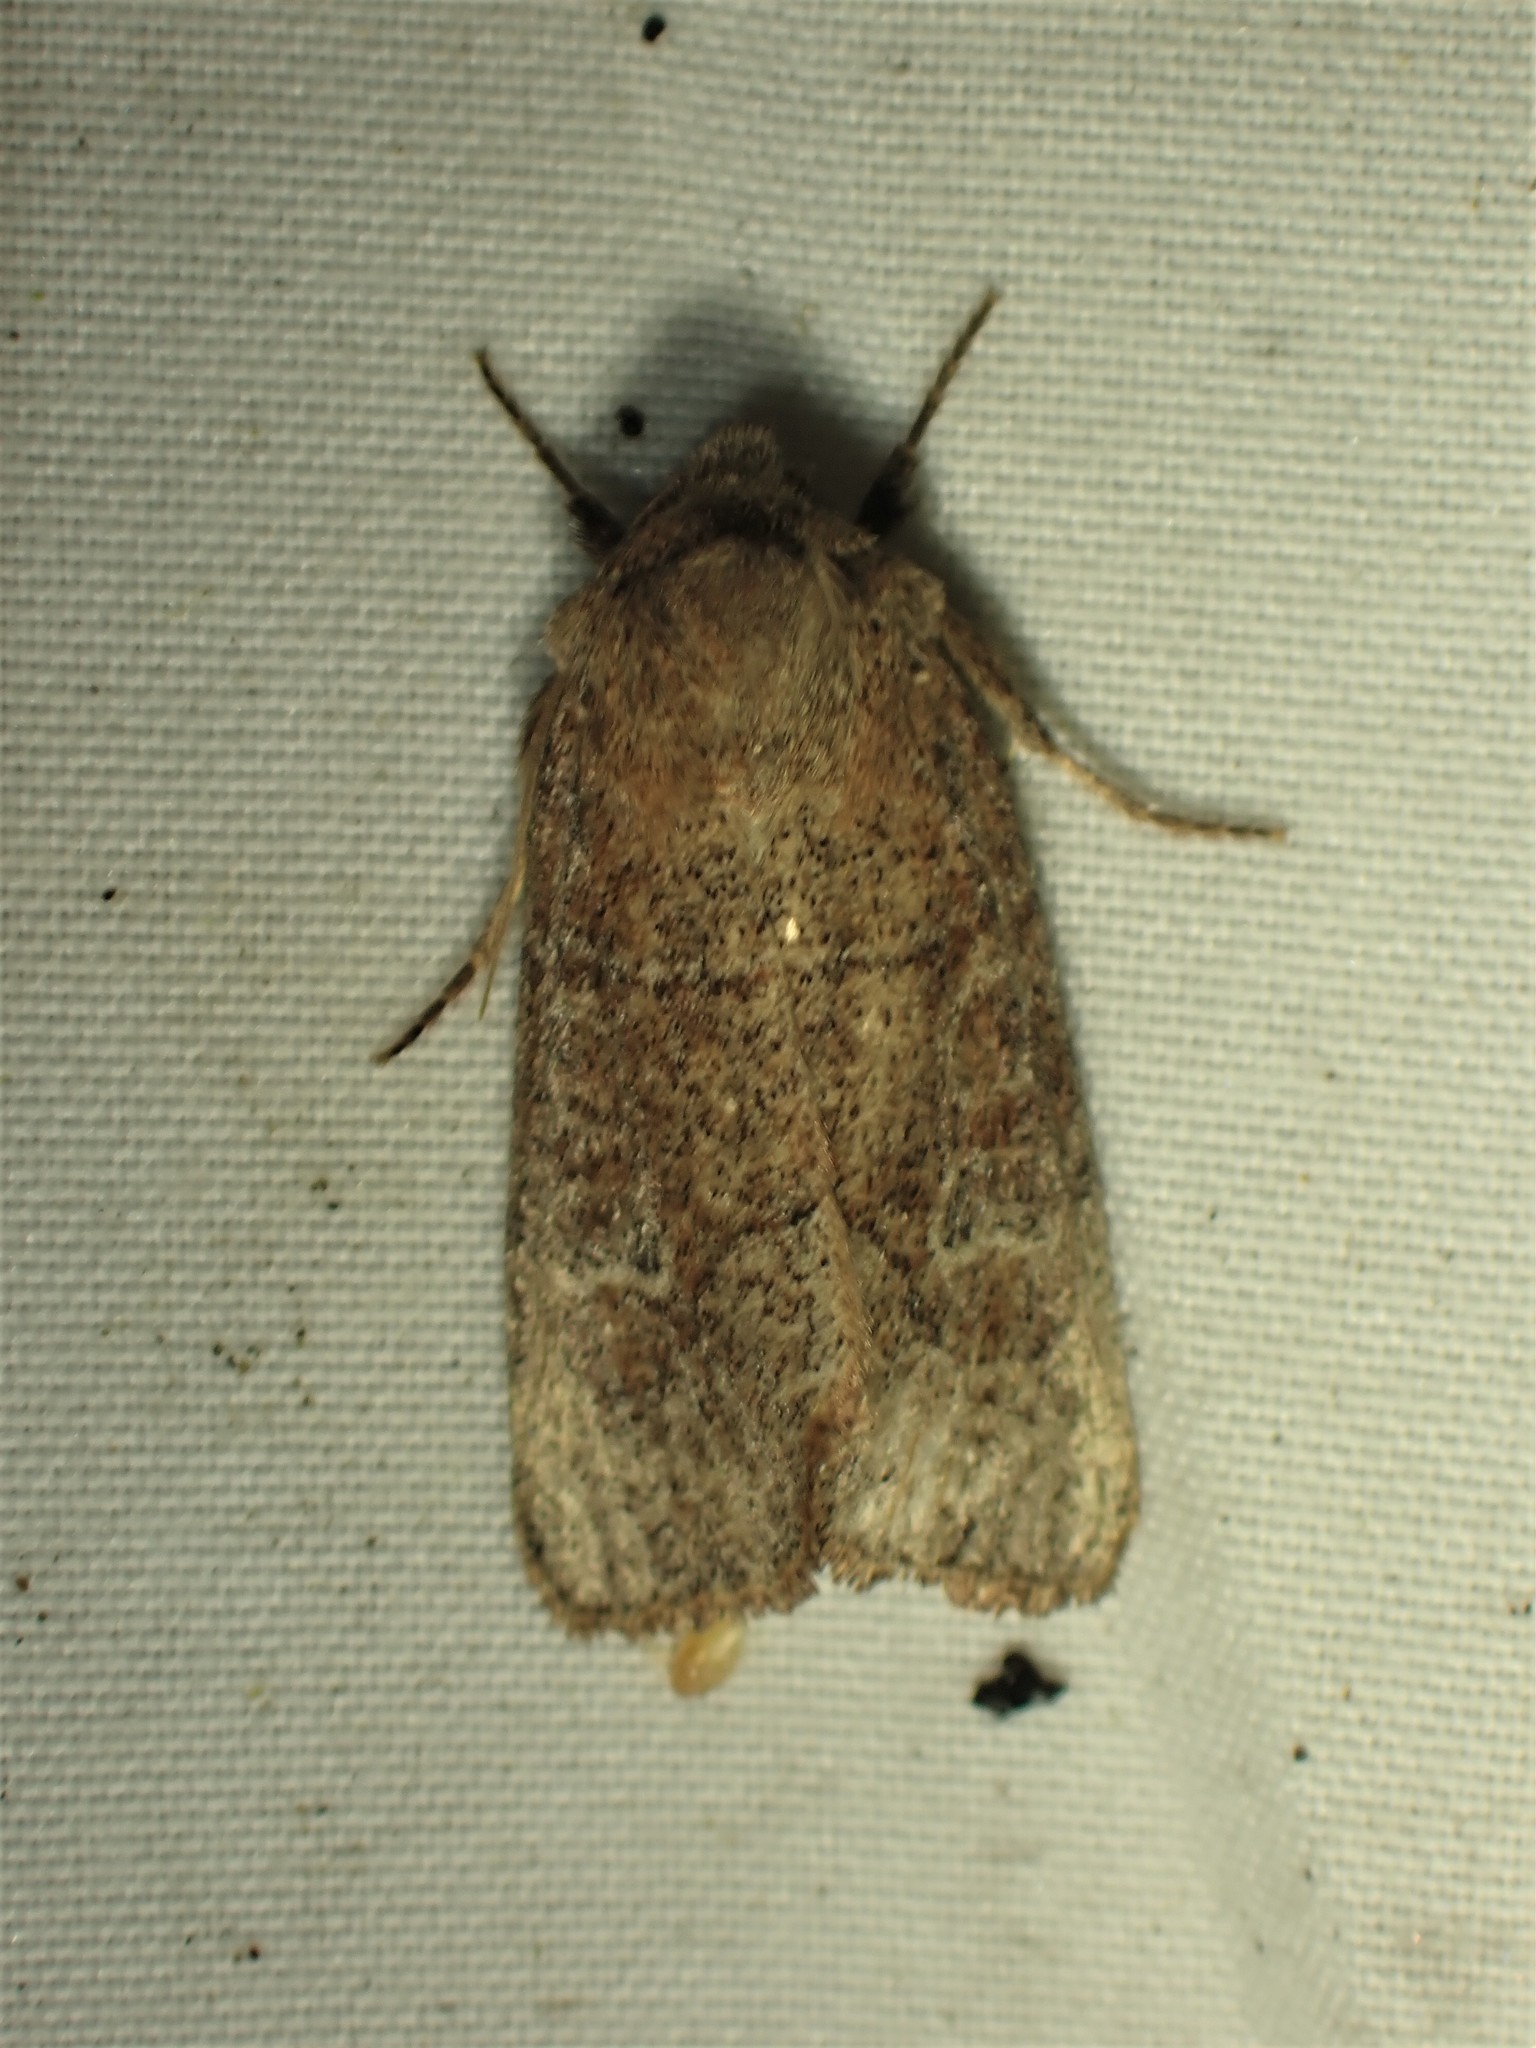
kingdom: Animalia
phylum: Arthropoda
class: Insecta
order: Lepidoptera
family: Noctuidae
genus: Crocigrapha
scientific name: Crocigrapha normani
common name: Norman's quaker
